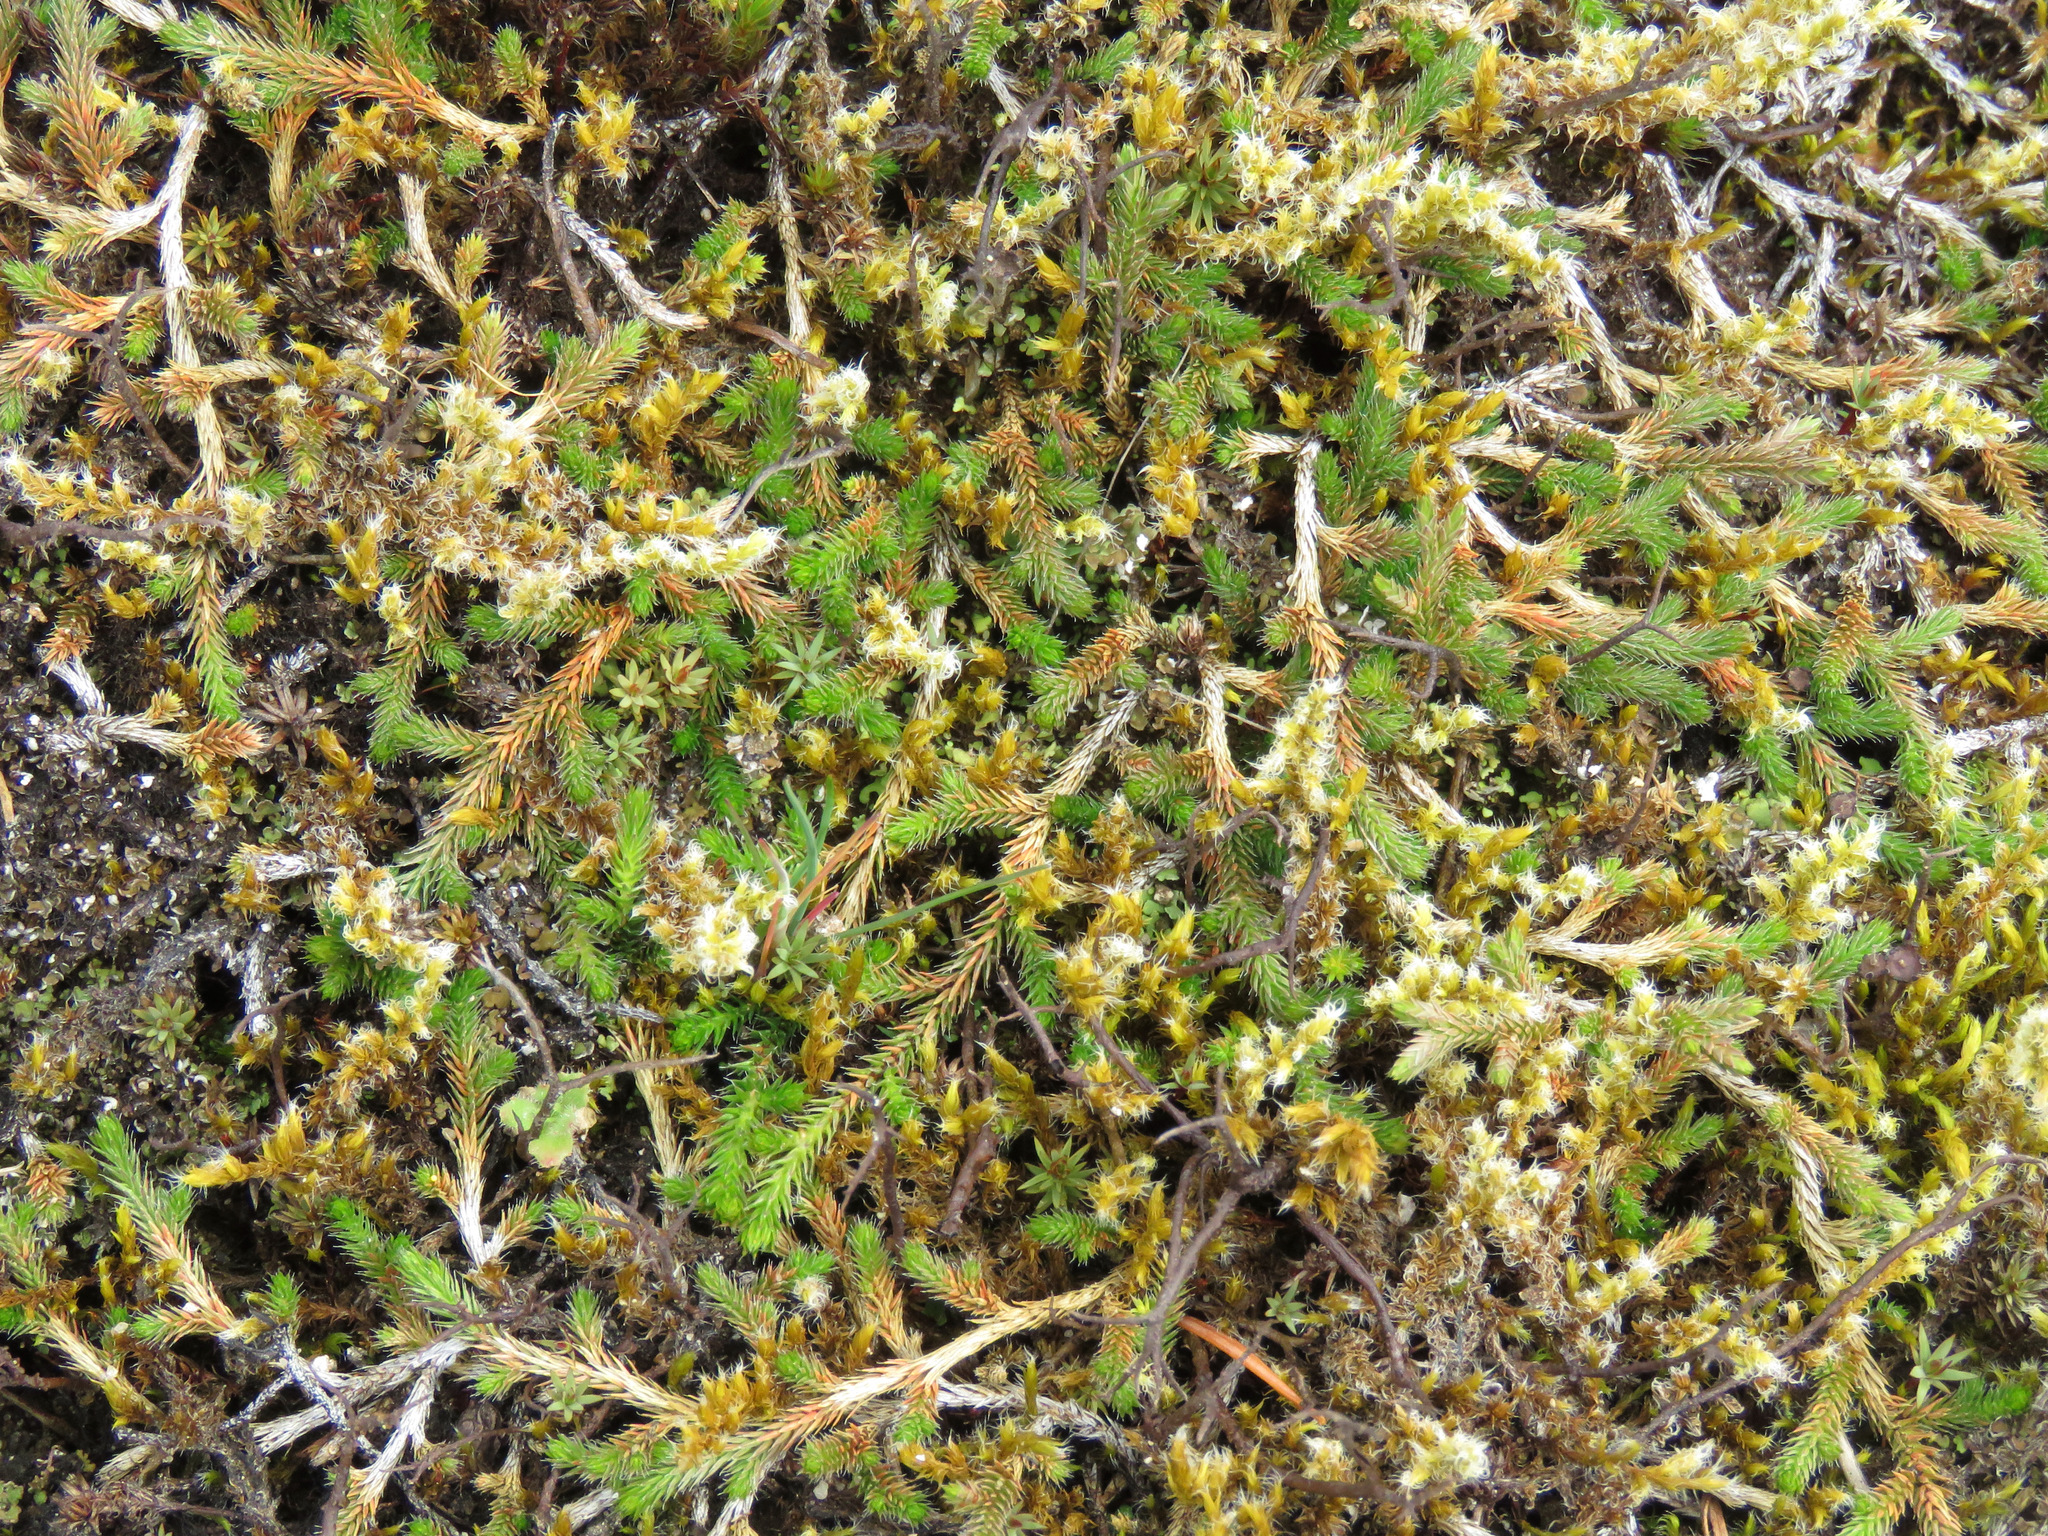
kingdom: Plantae
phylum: Tracheophyta
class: Lycopodiopsida
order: Selaginellales
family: Selaginellaceae
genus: Selaginella
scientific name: Selaginella wallacei
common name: Wallace's selaginella
